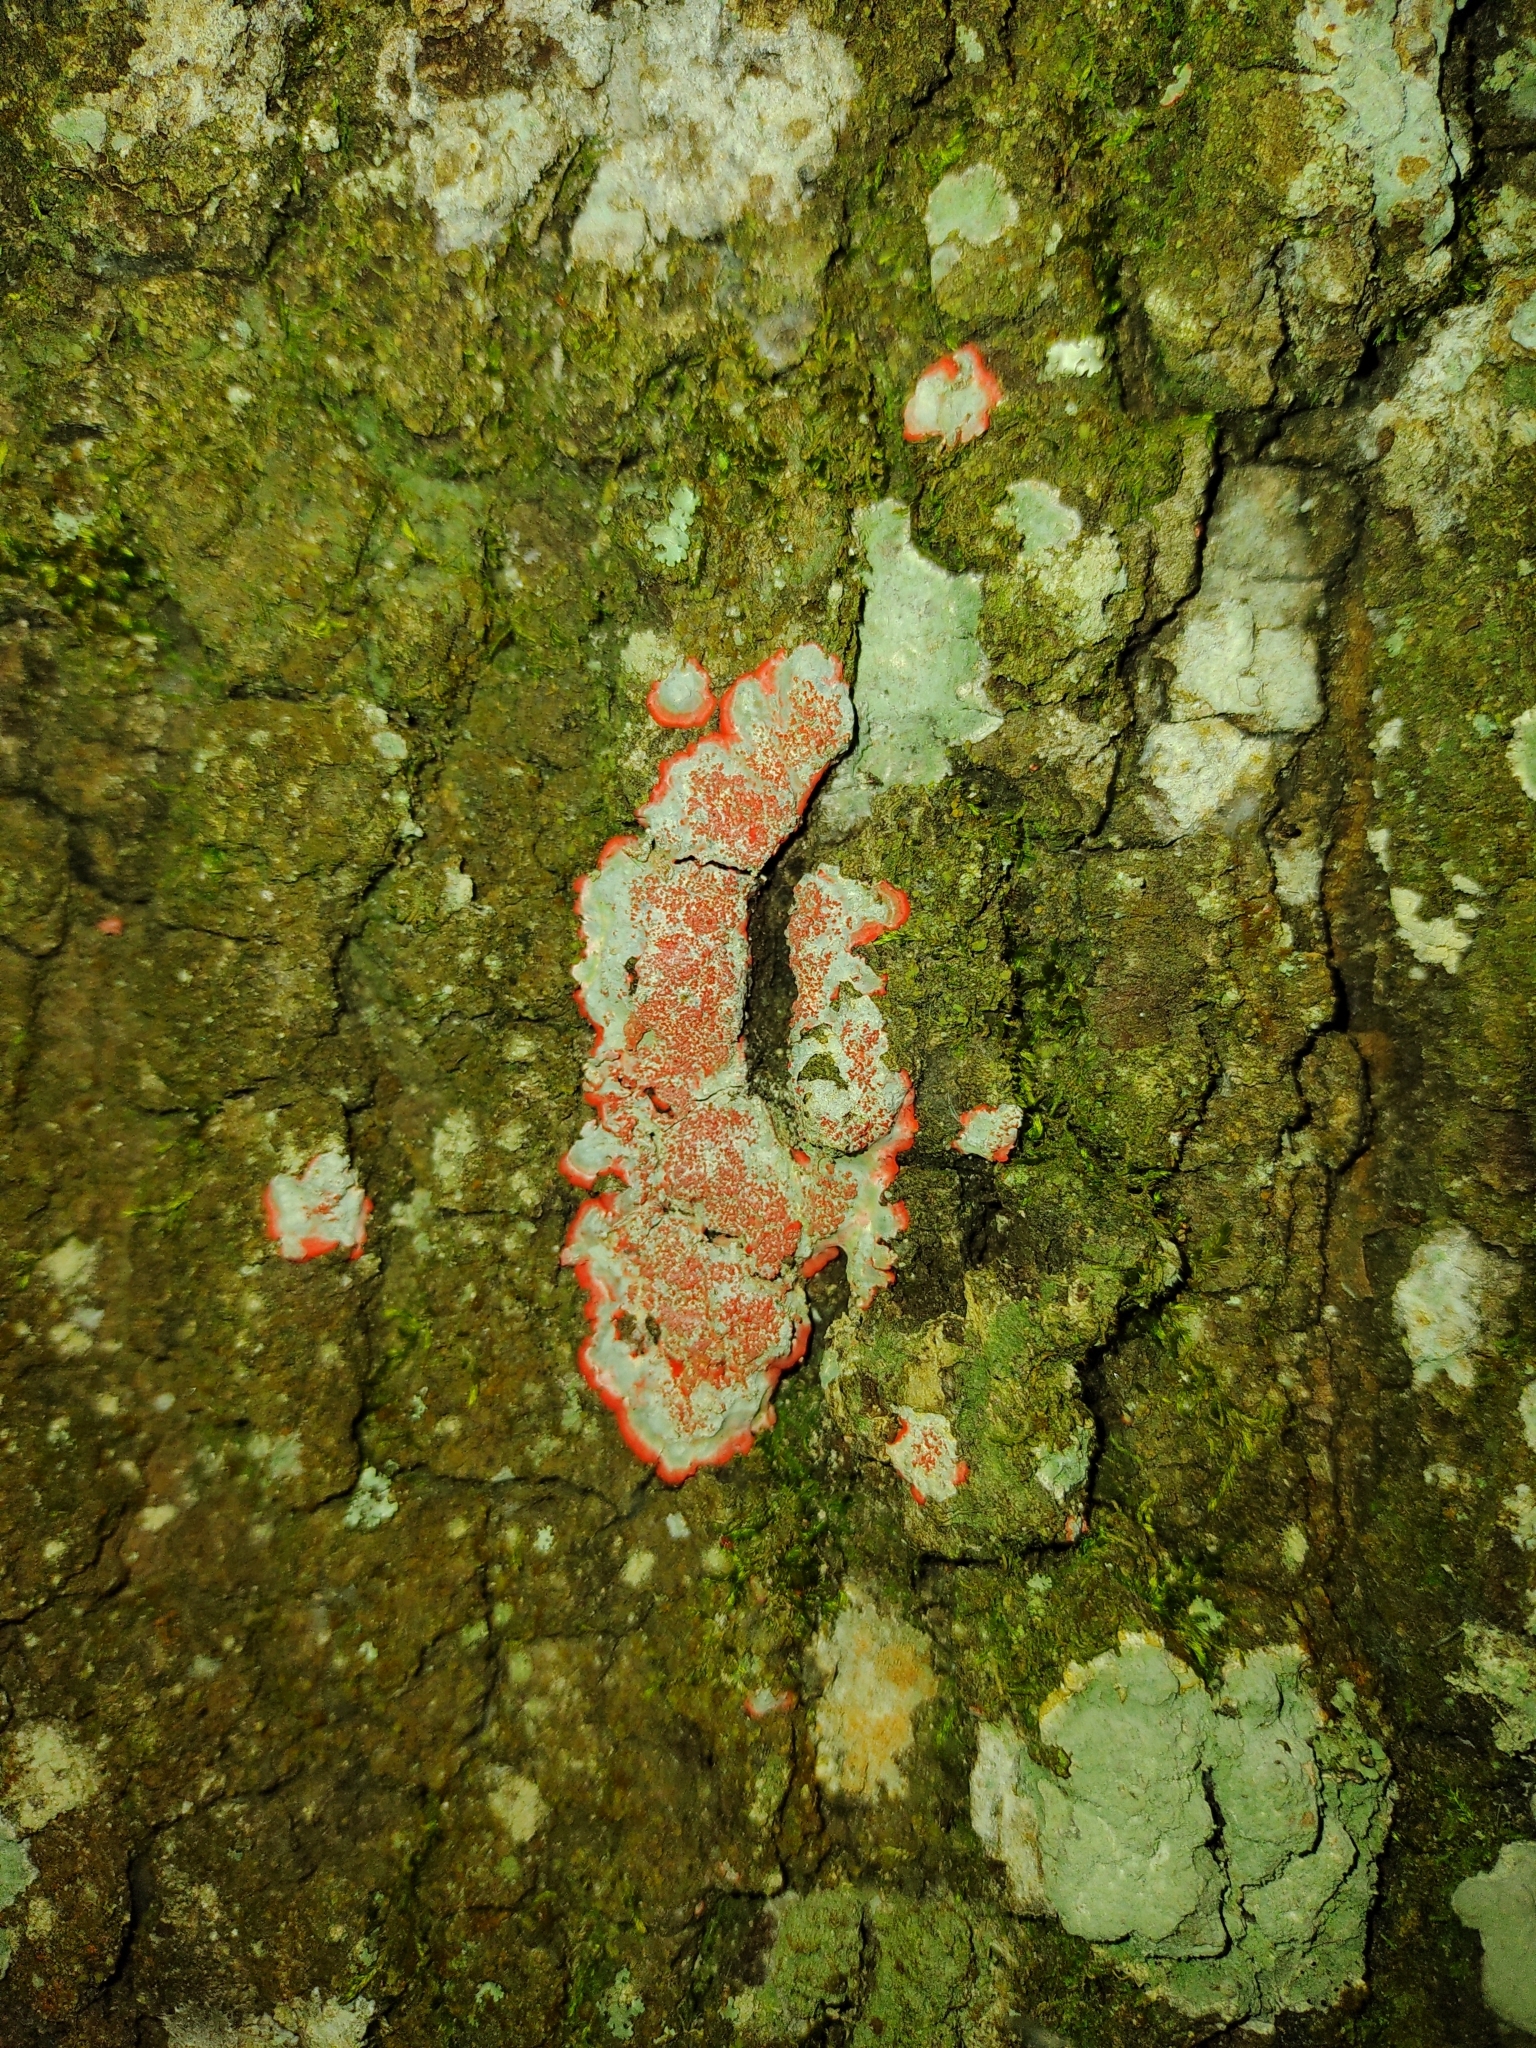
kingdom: Fungi
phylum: Ascomycota
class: Arthoniomycetes
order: Arthoniales
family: Arthoniaceae
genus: Herpothallon
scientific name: Herpothallon rubrocinctum
